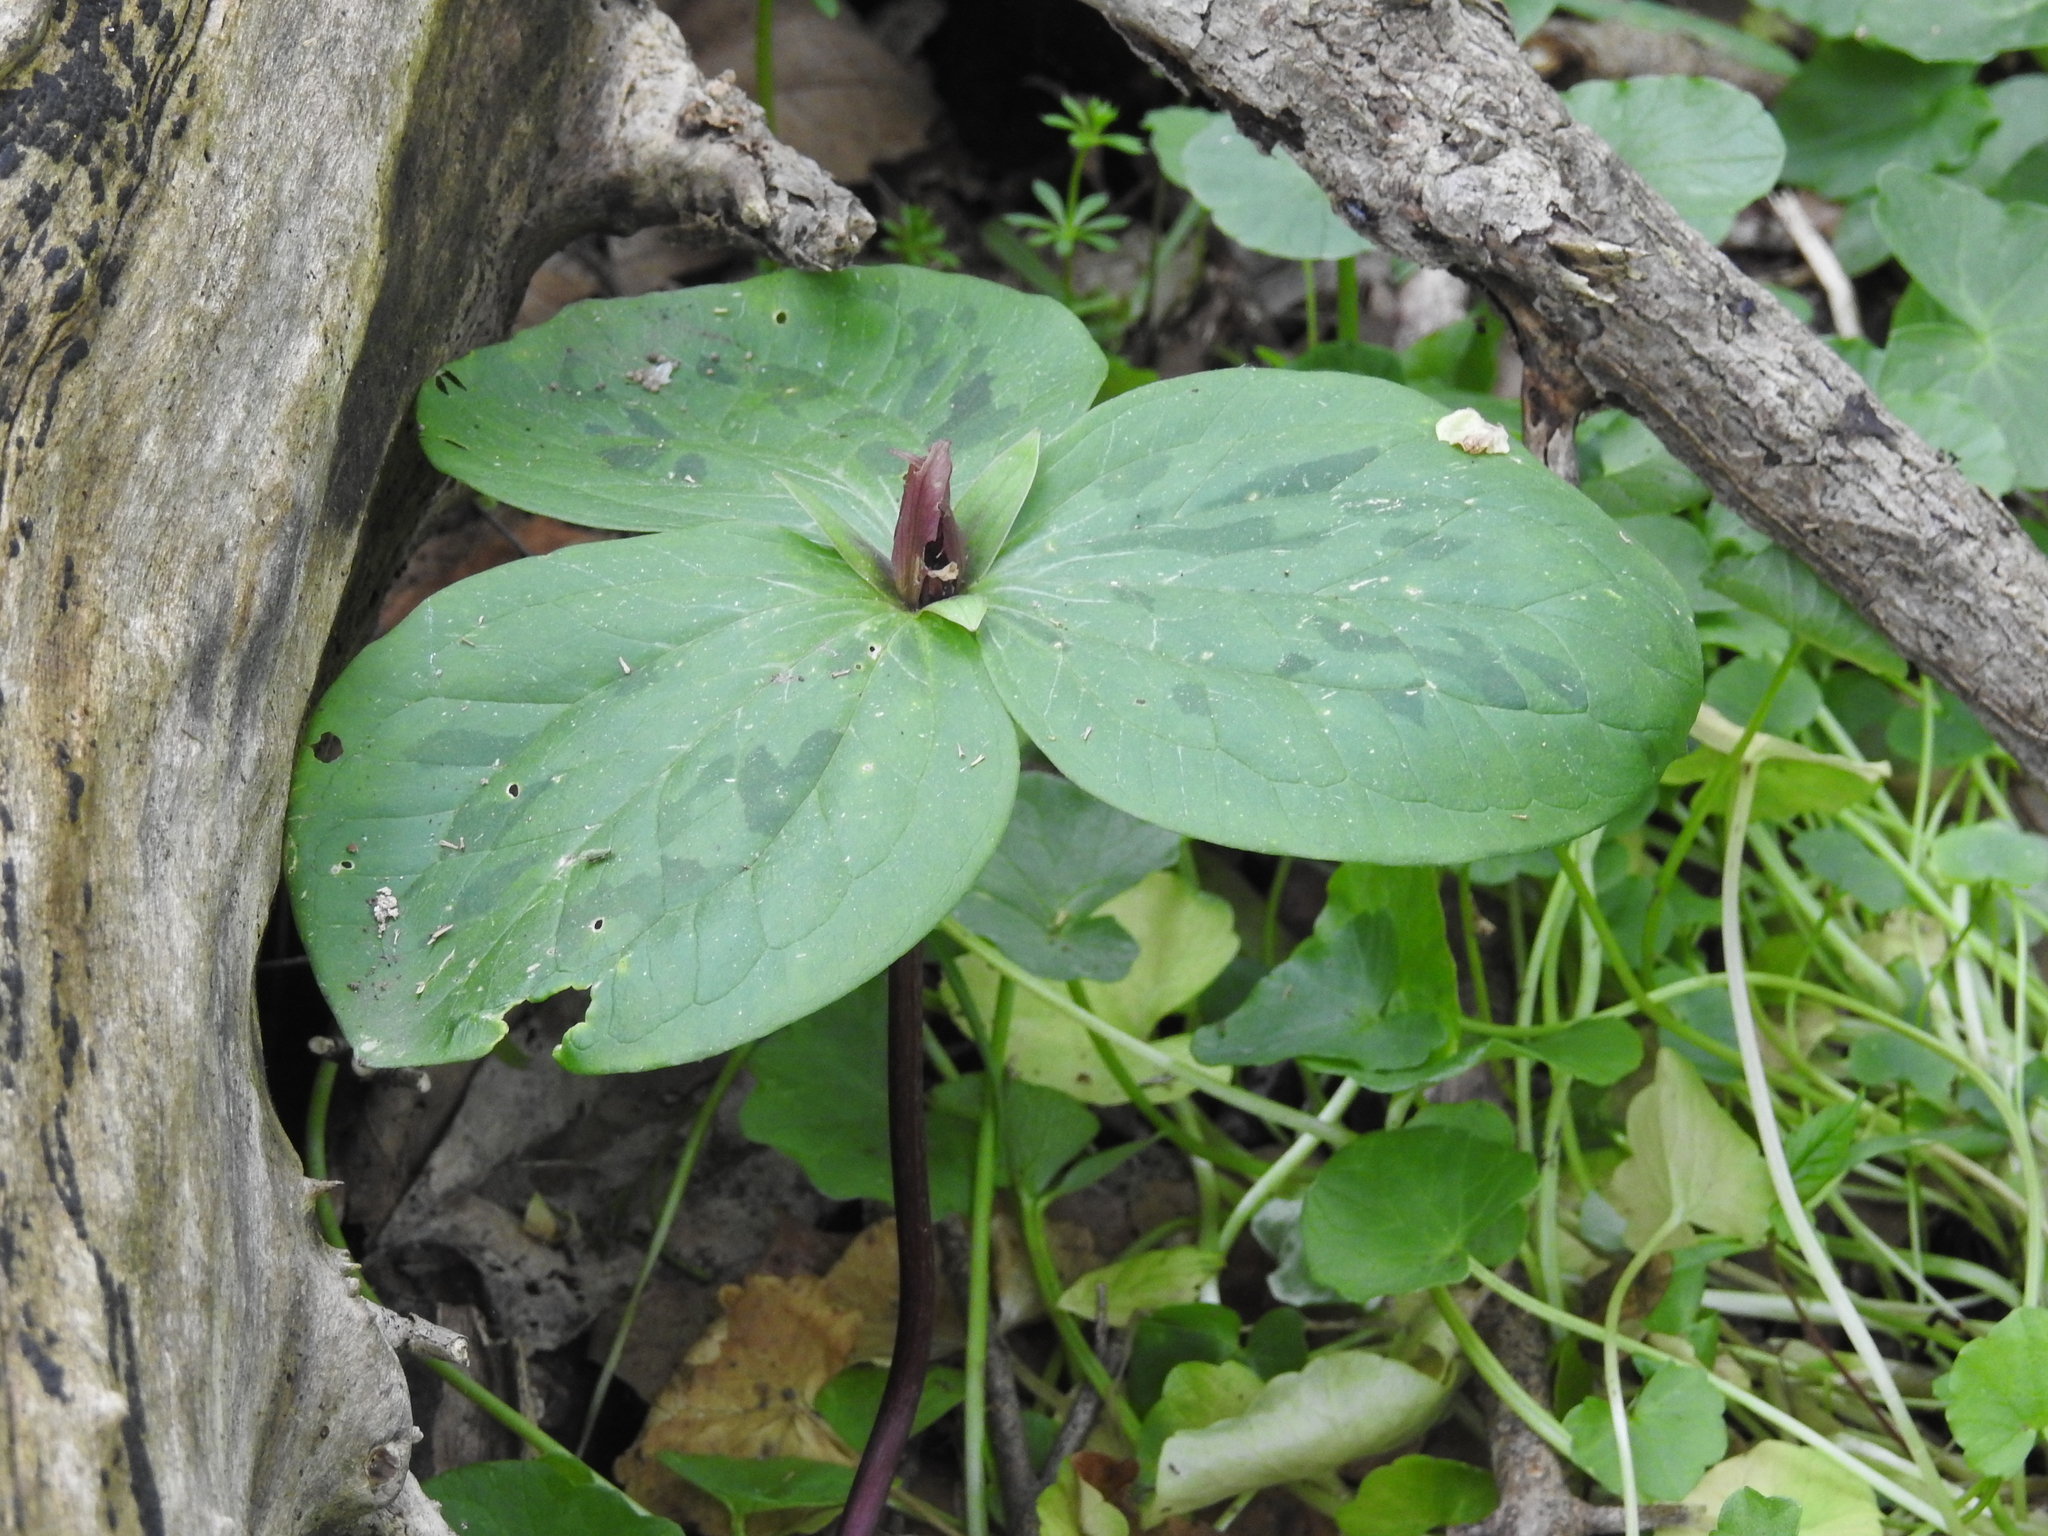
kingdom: Plantae
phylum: Tracheophyta
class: Liliopsida
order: Liliales
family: Melanthiaceae
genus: Trillium
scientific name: Trillium sessile
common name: Sessile trillium
